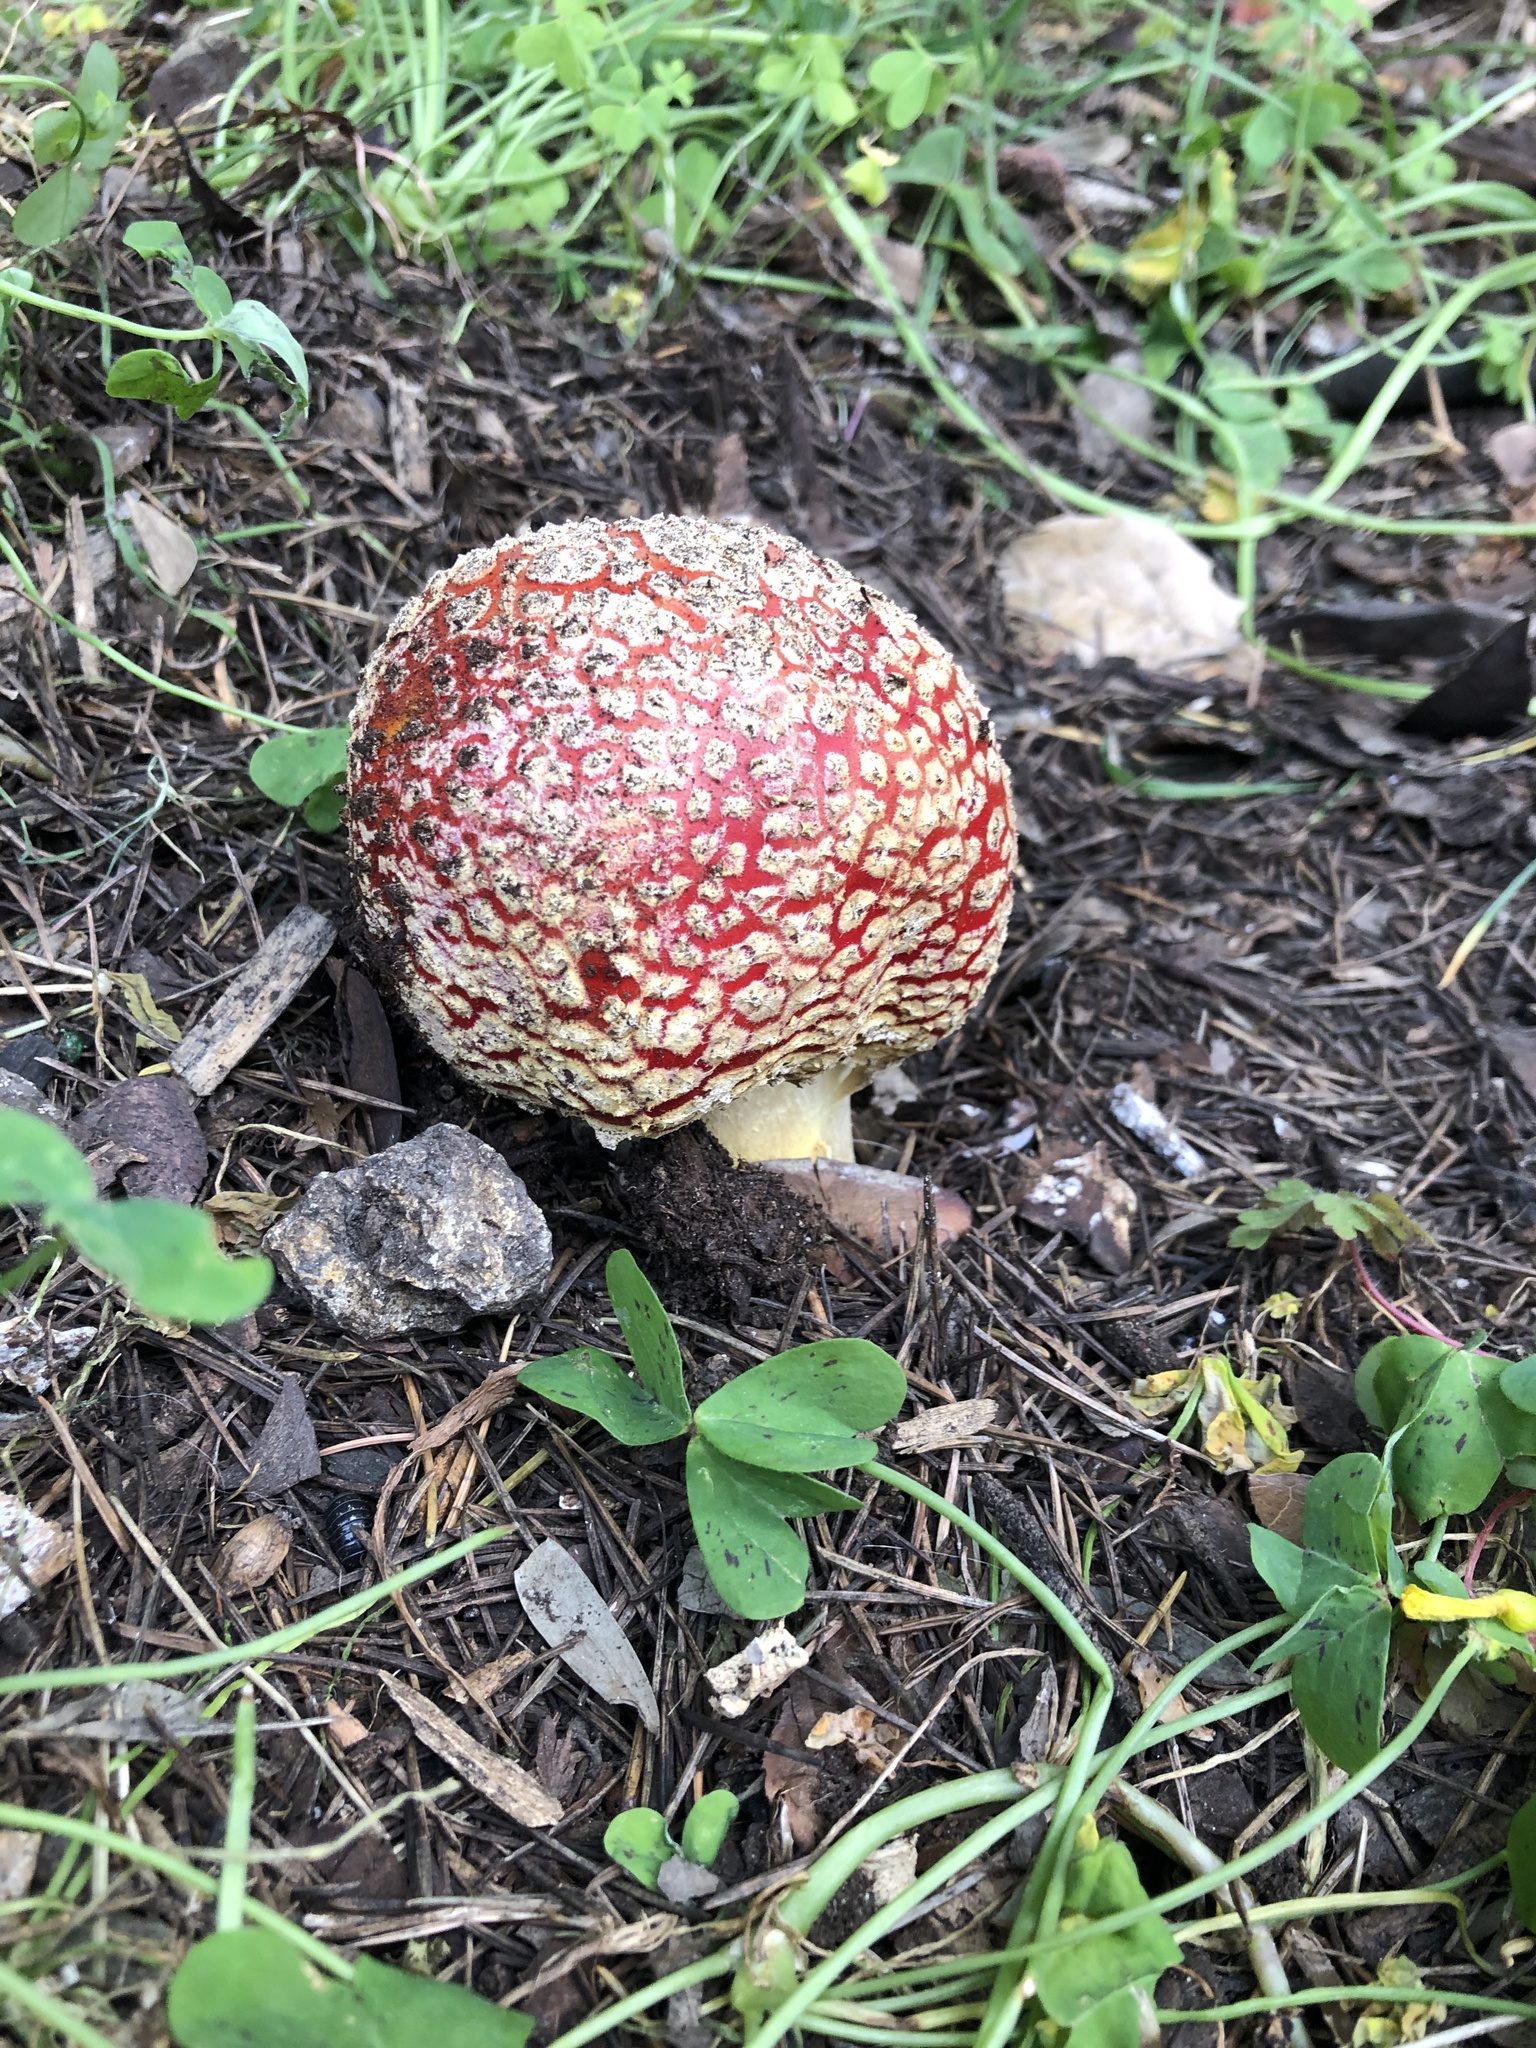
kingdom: Fungi
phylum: Basidiomycota
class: Agaricomycetes
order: Agaricales
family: Amanitaceae
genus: Amanita
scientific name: Amanita muscaria
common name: Fly agaric
